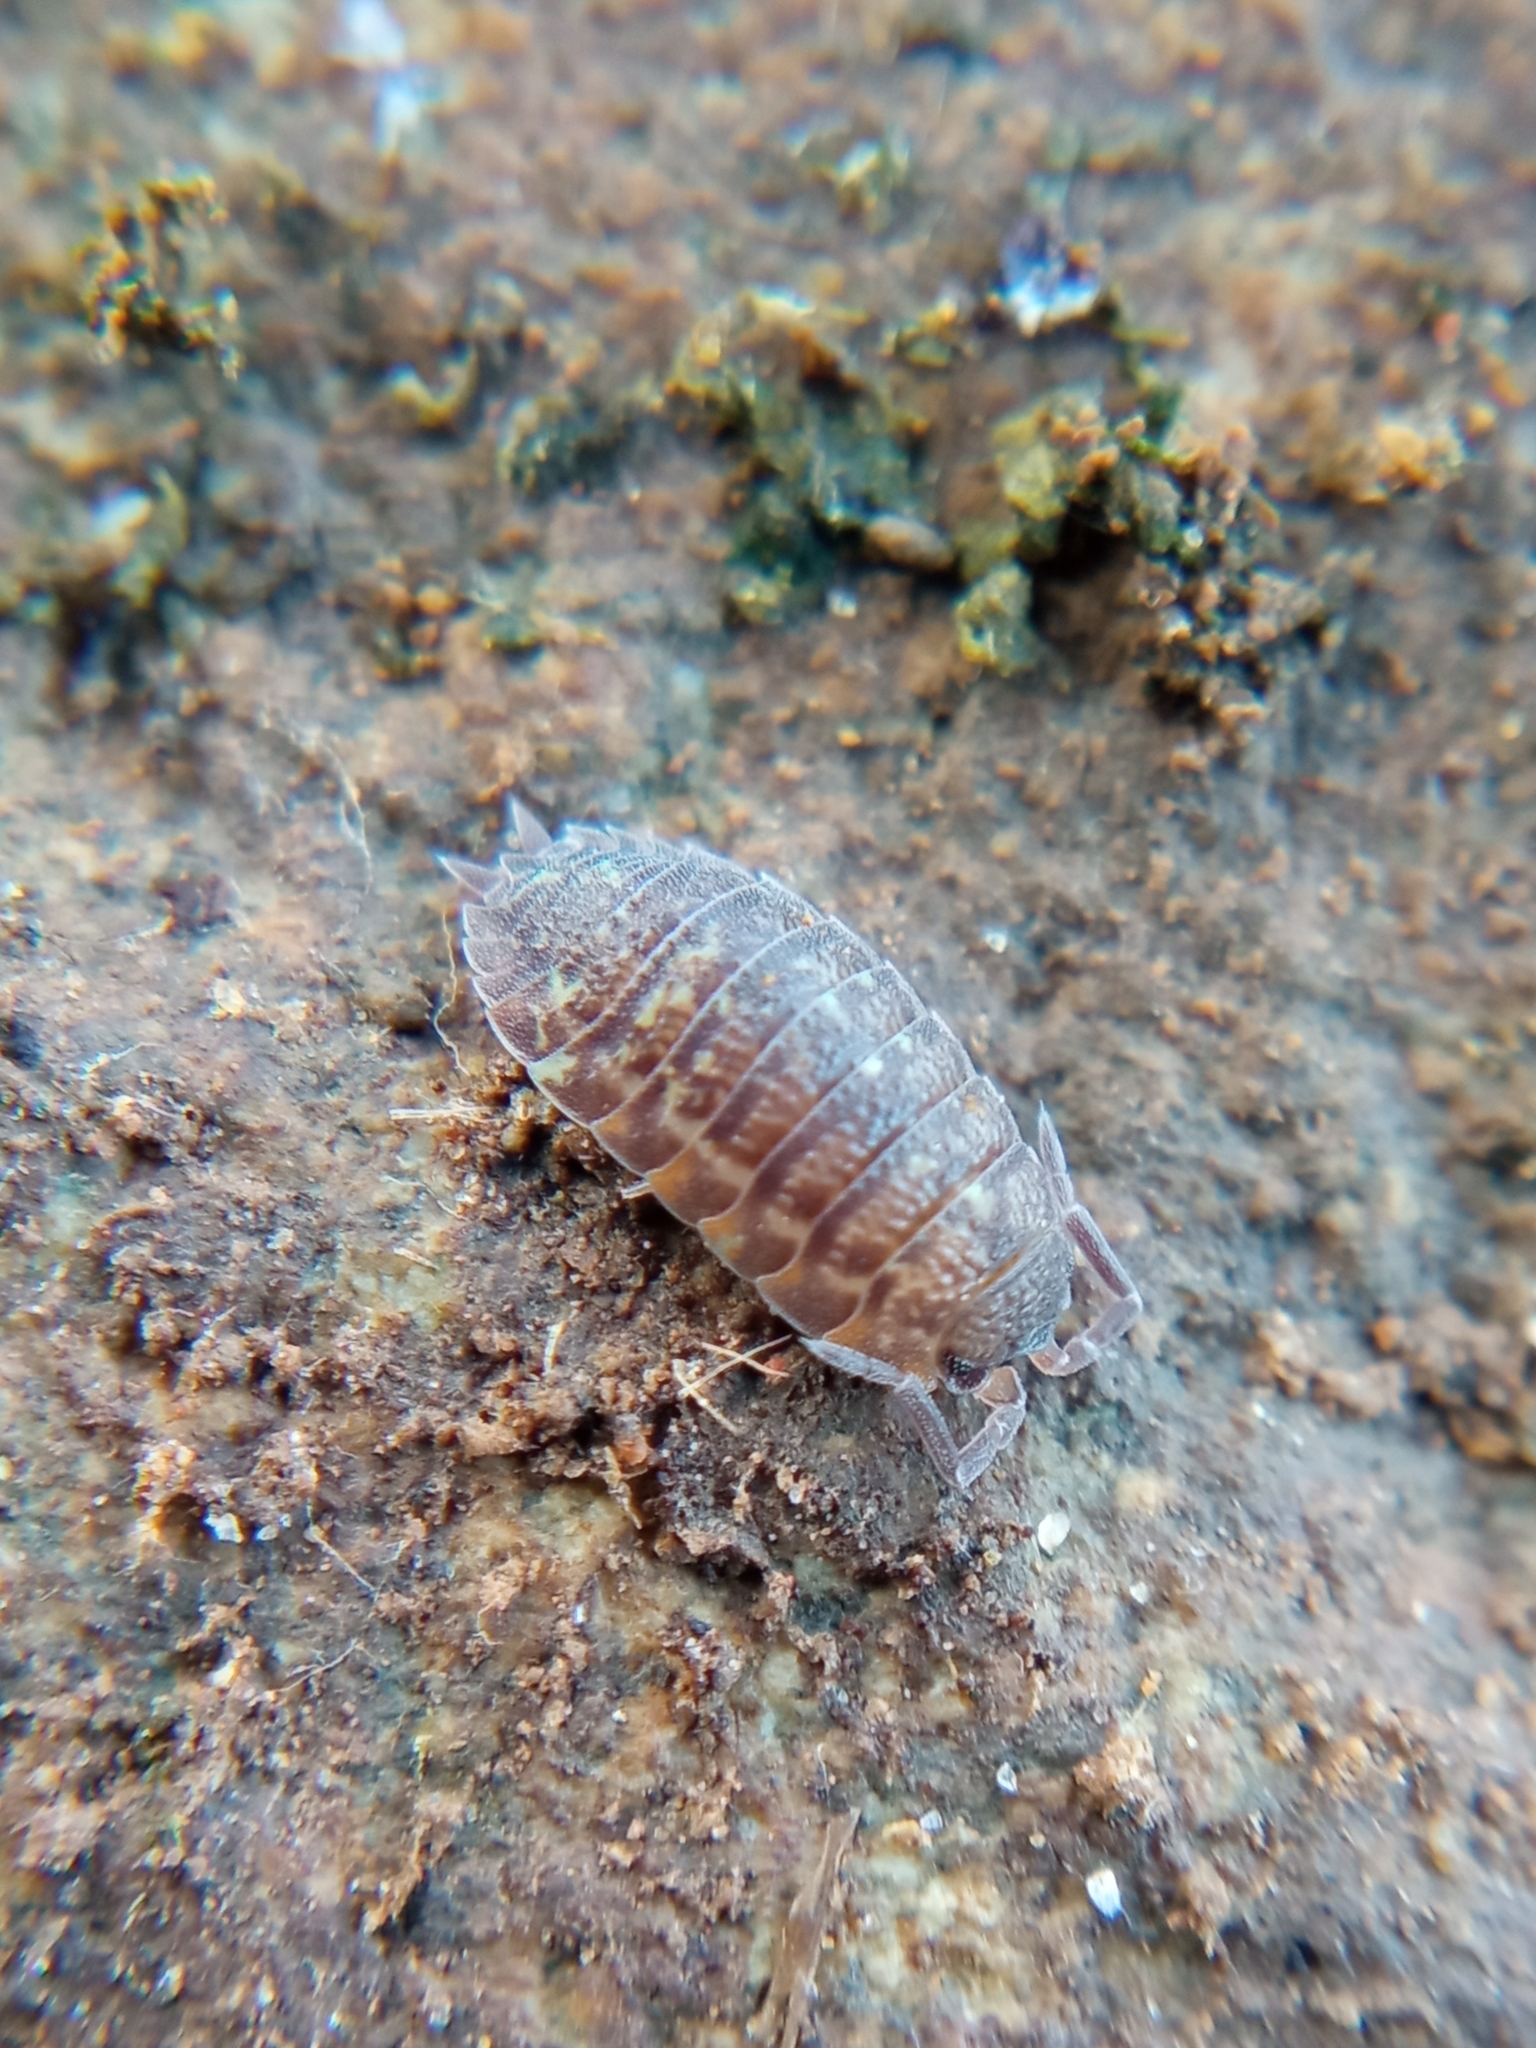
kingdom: Animalia
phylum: Arthropoda
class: Malacostraca
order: Isopoda
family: Porcellionidae
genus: Porcellio
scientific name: Porcellio scaber
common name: Common rough woodlouse
